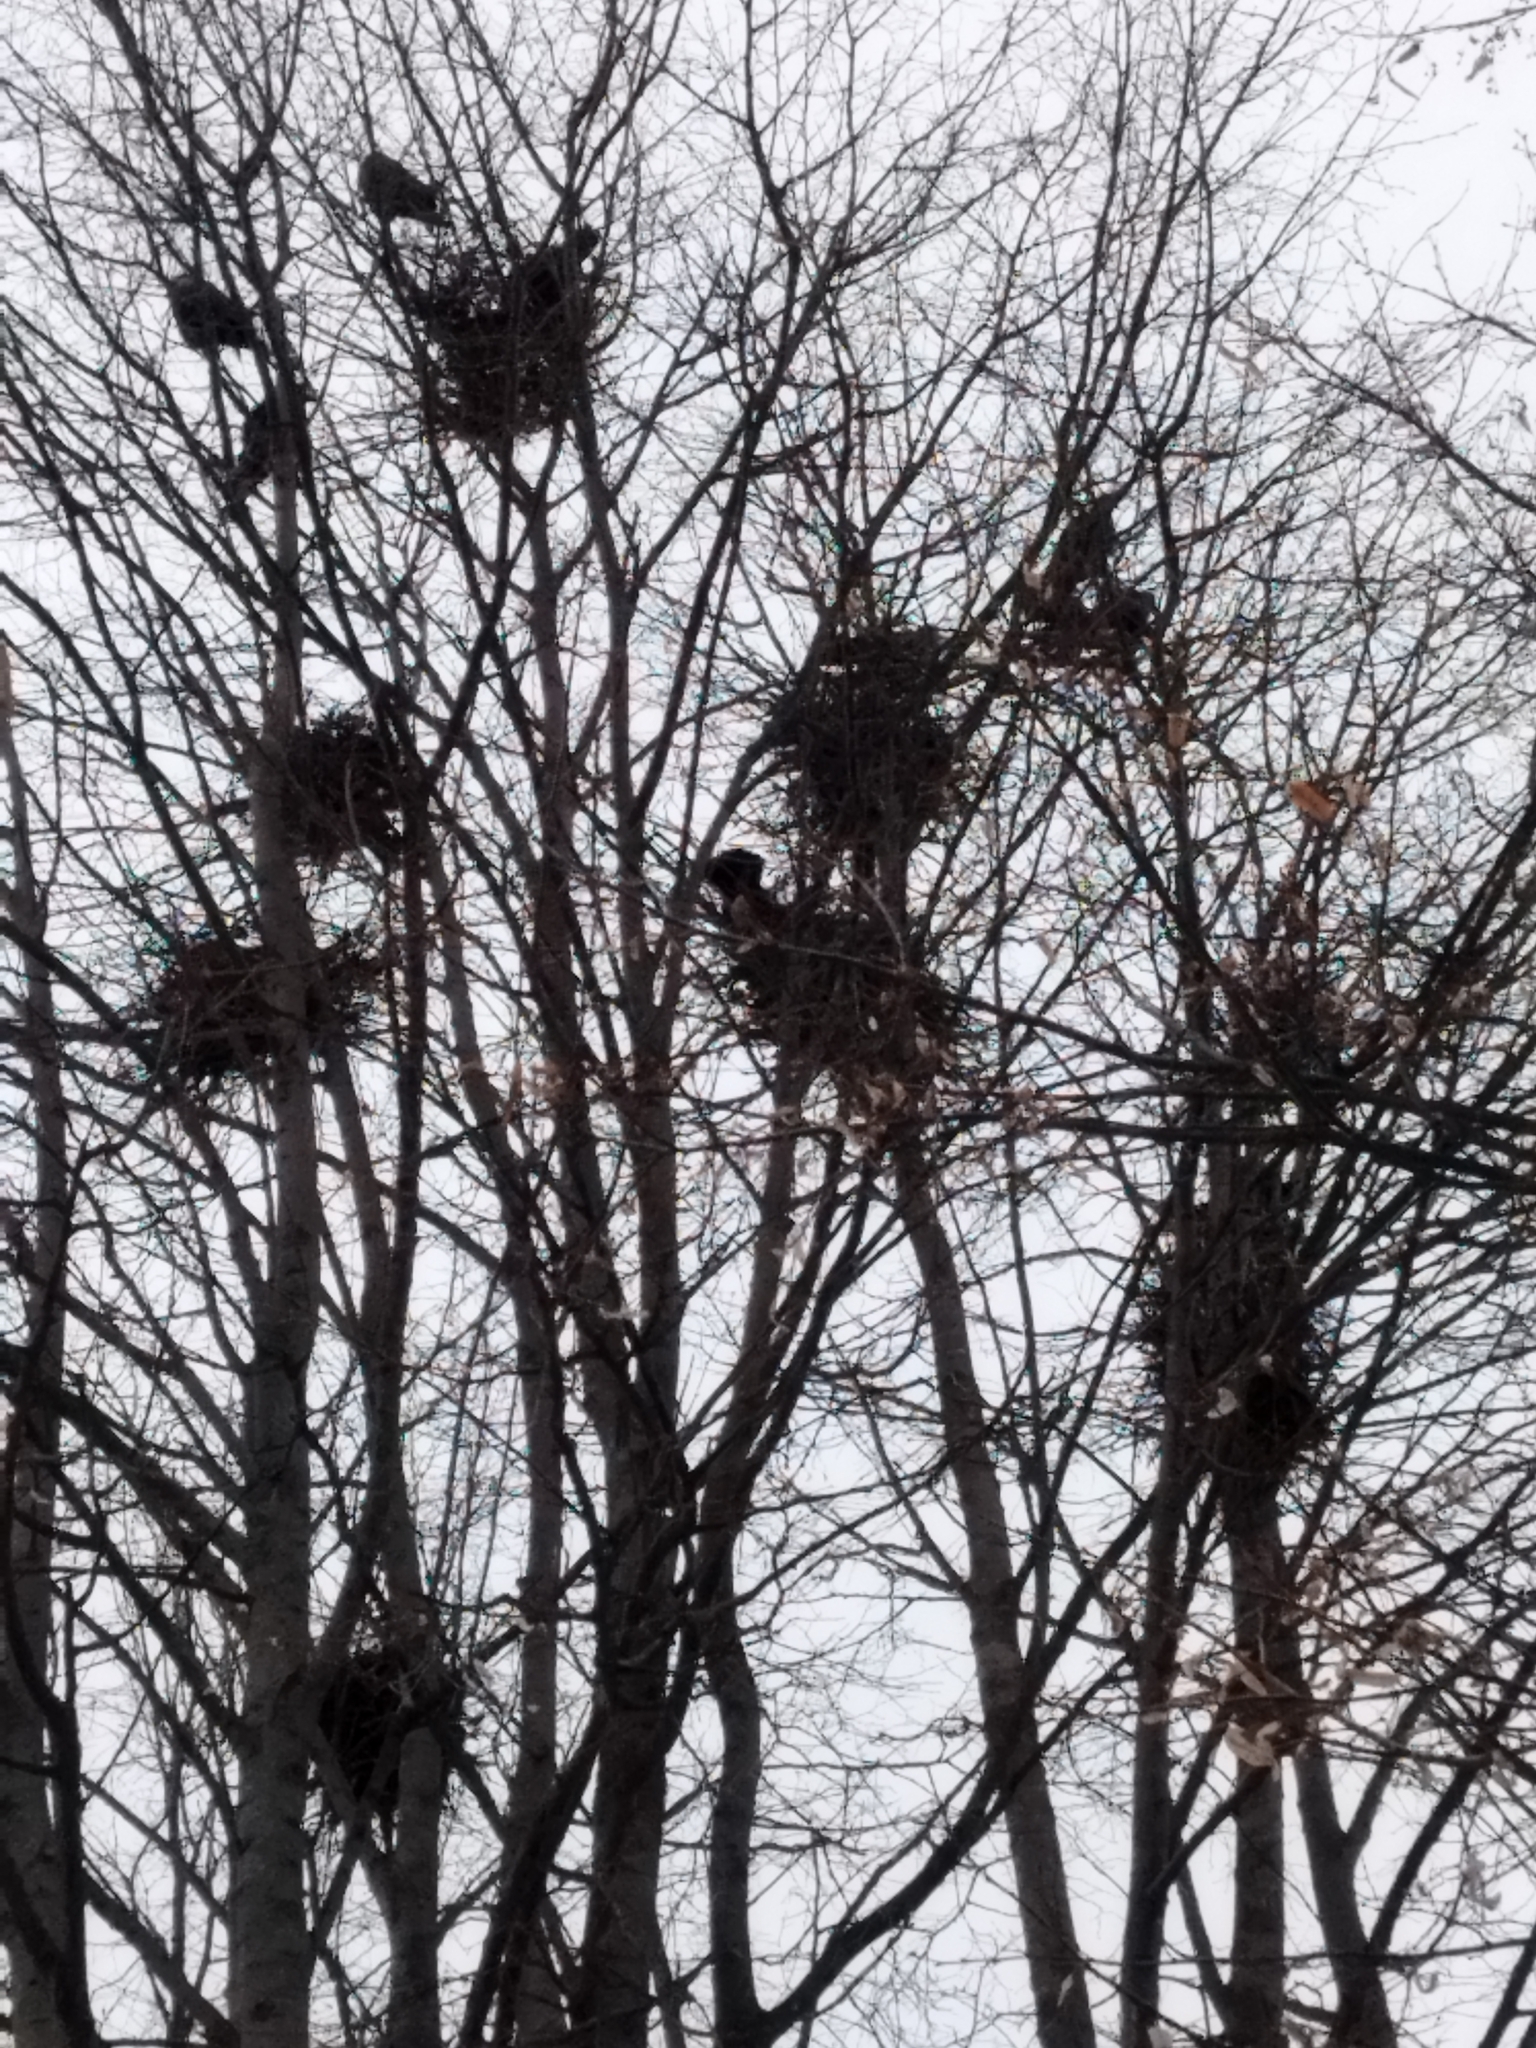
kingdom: Animalia
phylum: Chordata
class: Aves
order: Passeriformes
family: Corvidae
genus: Corvus
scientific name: Corvus frugilegus
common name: Rook
